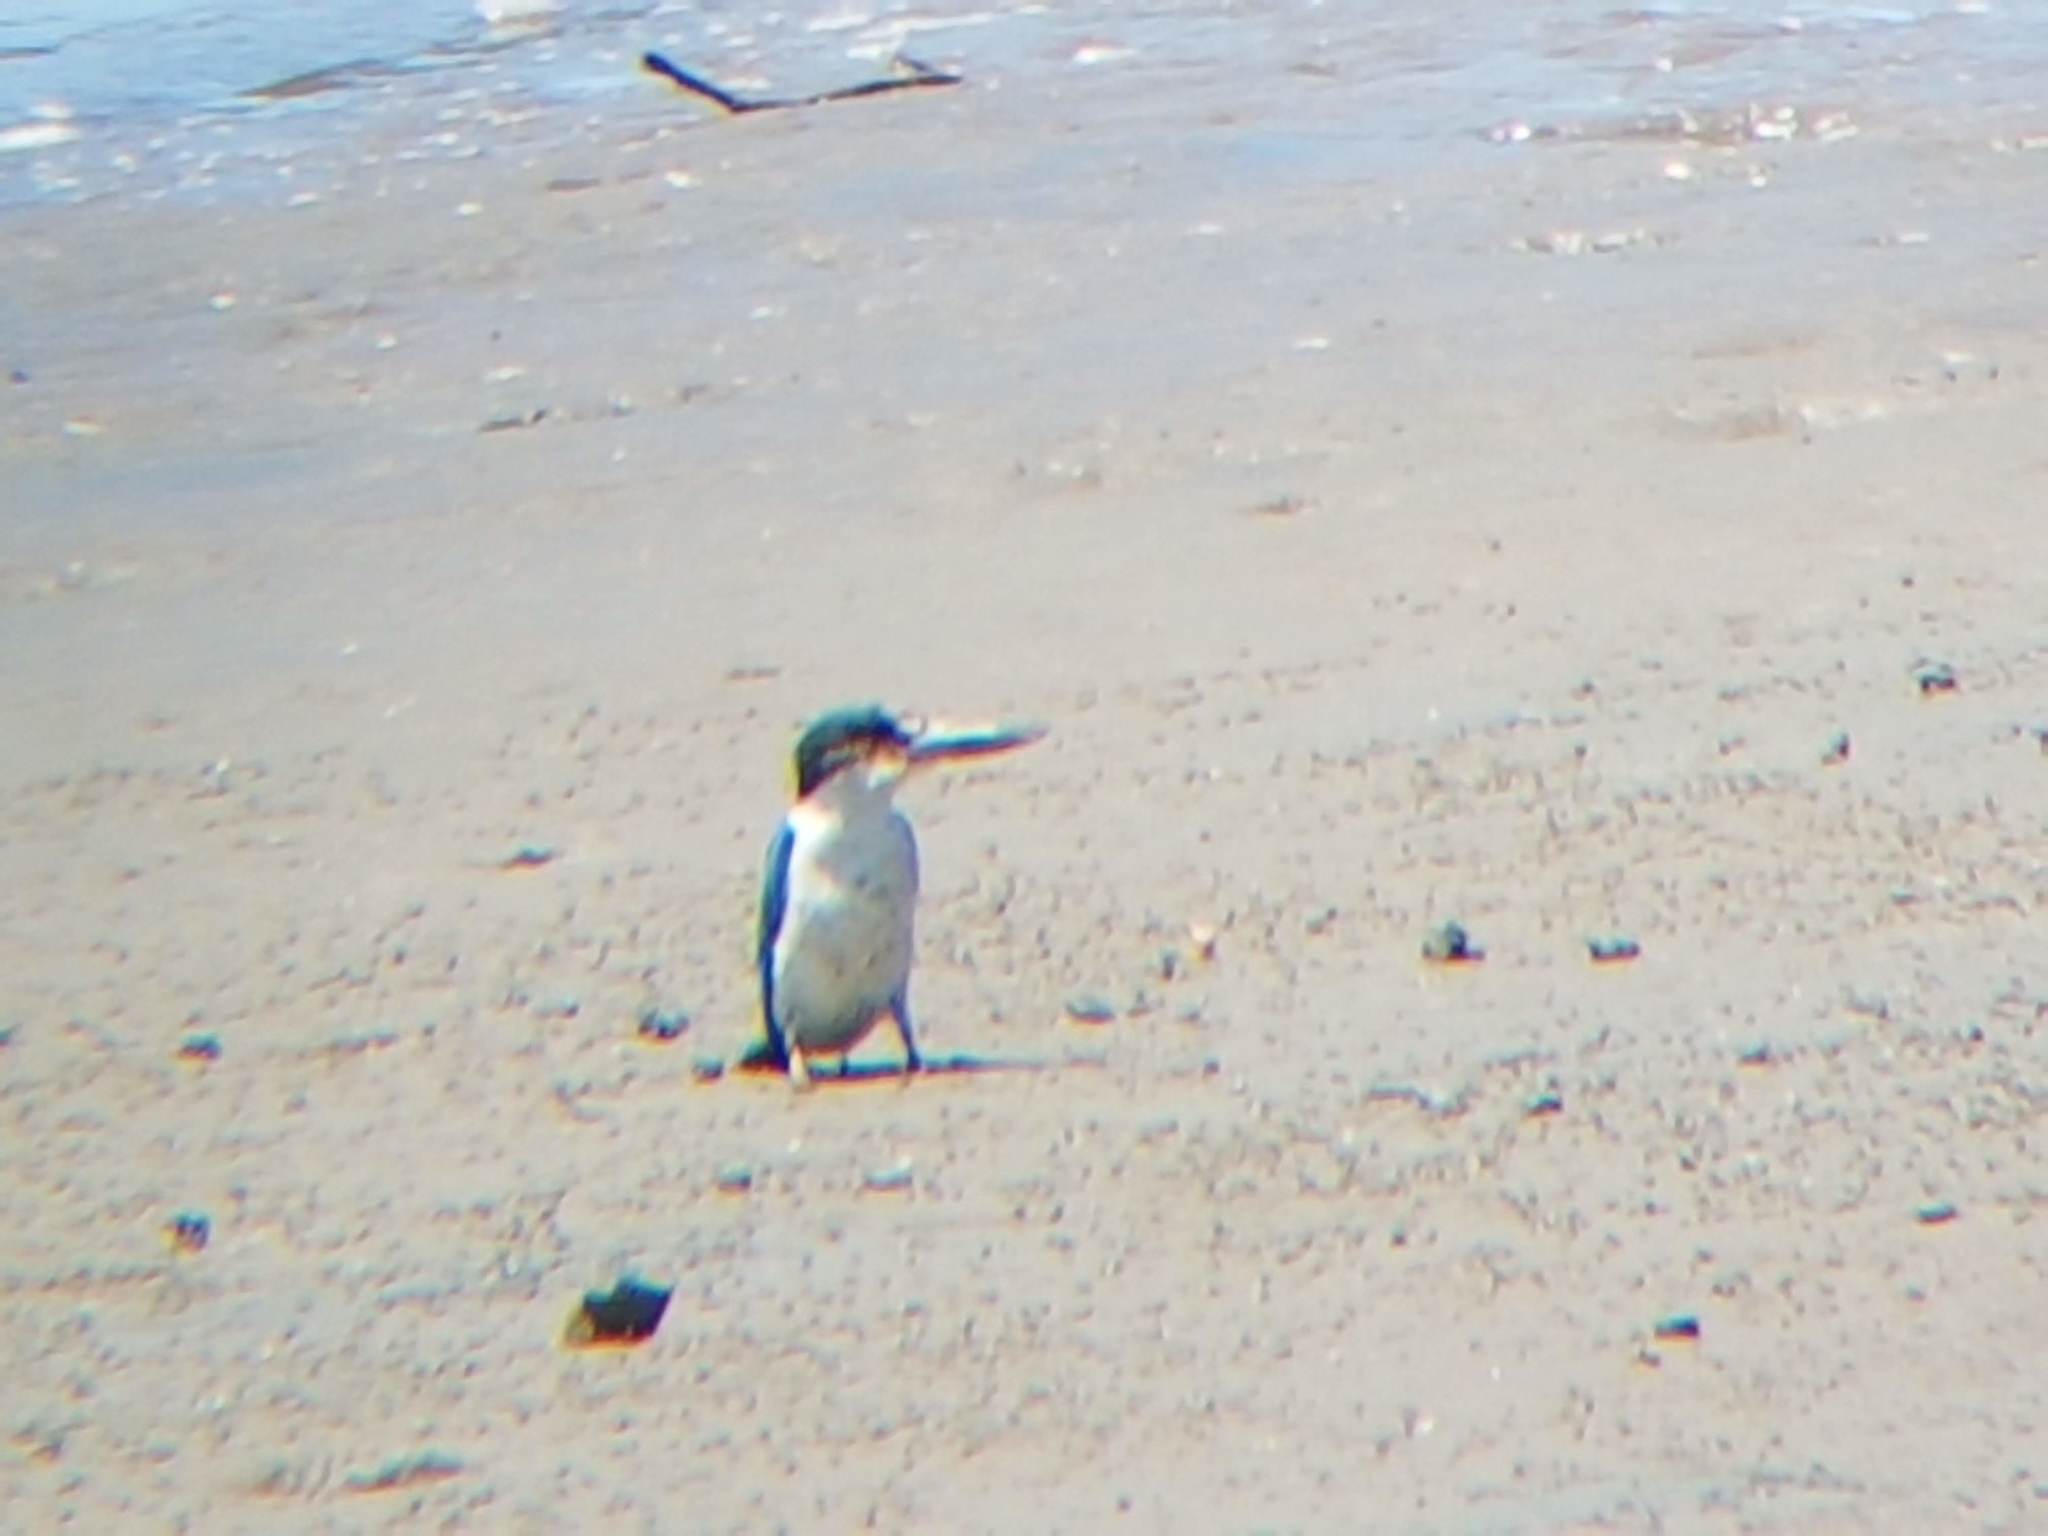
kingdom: Animalia
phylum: Chordata
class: Aves
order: Coraciiformes
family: Alcedinidae
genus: Todiramphus
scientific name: Todiramphus sordidus
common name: Torresian kingfisher
